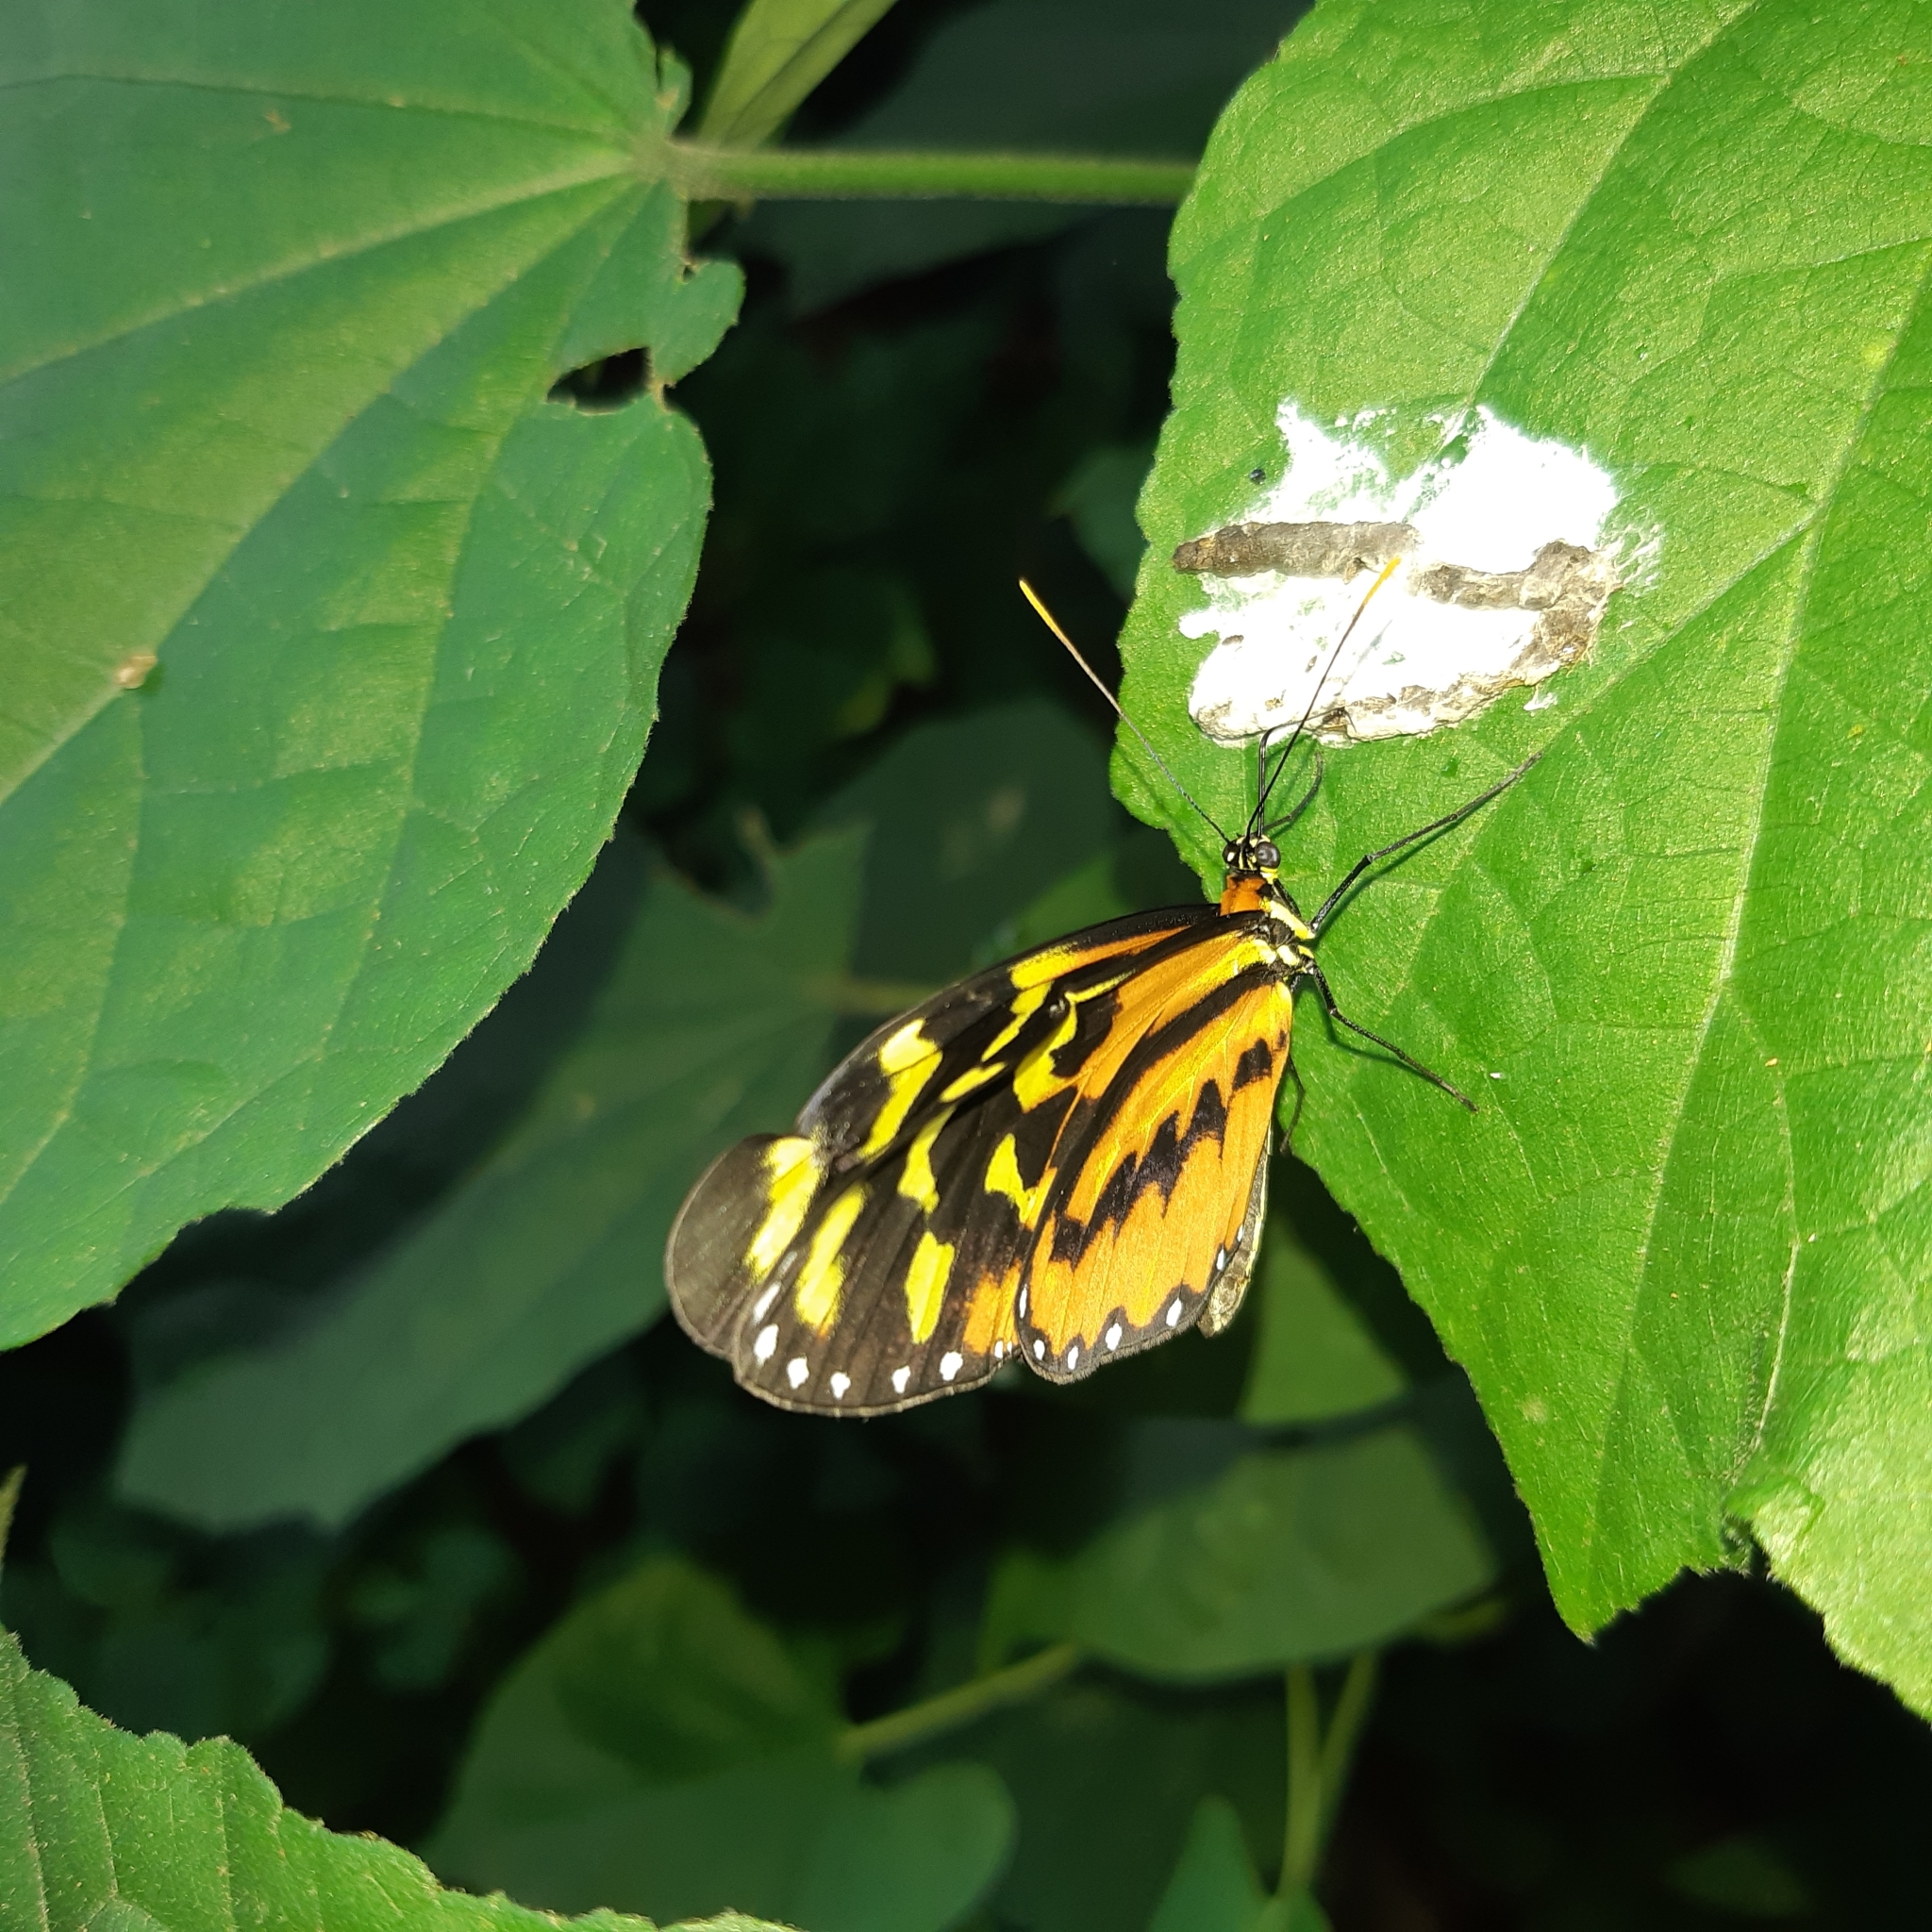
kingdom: Animalia
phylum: Arthropoda
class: Insecta
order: Lepidoptera
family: Nymphalidae
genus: Mechanitis
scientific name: Mechanitis polymnia
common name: Disturbed tigerwing
